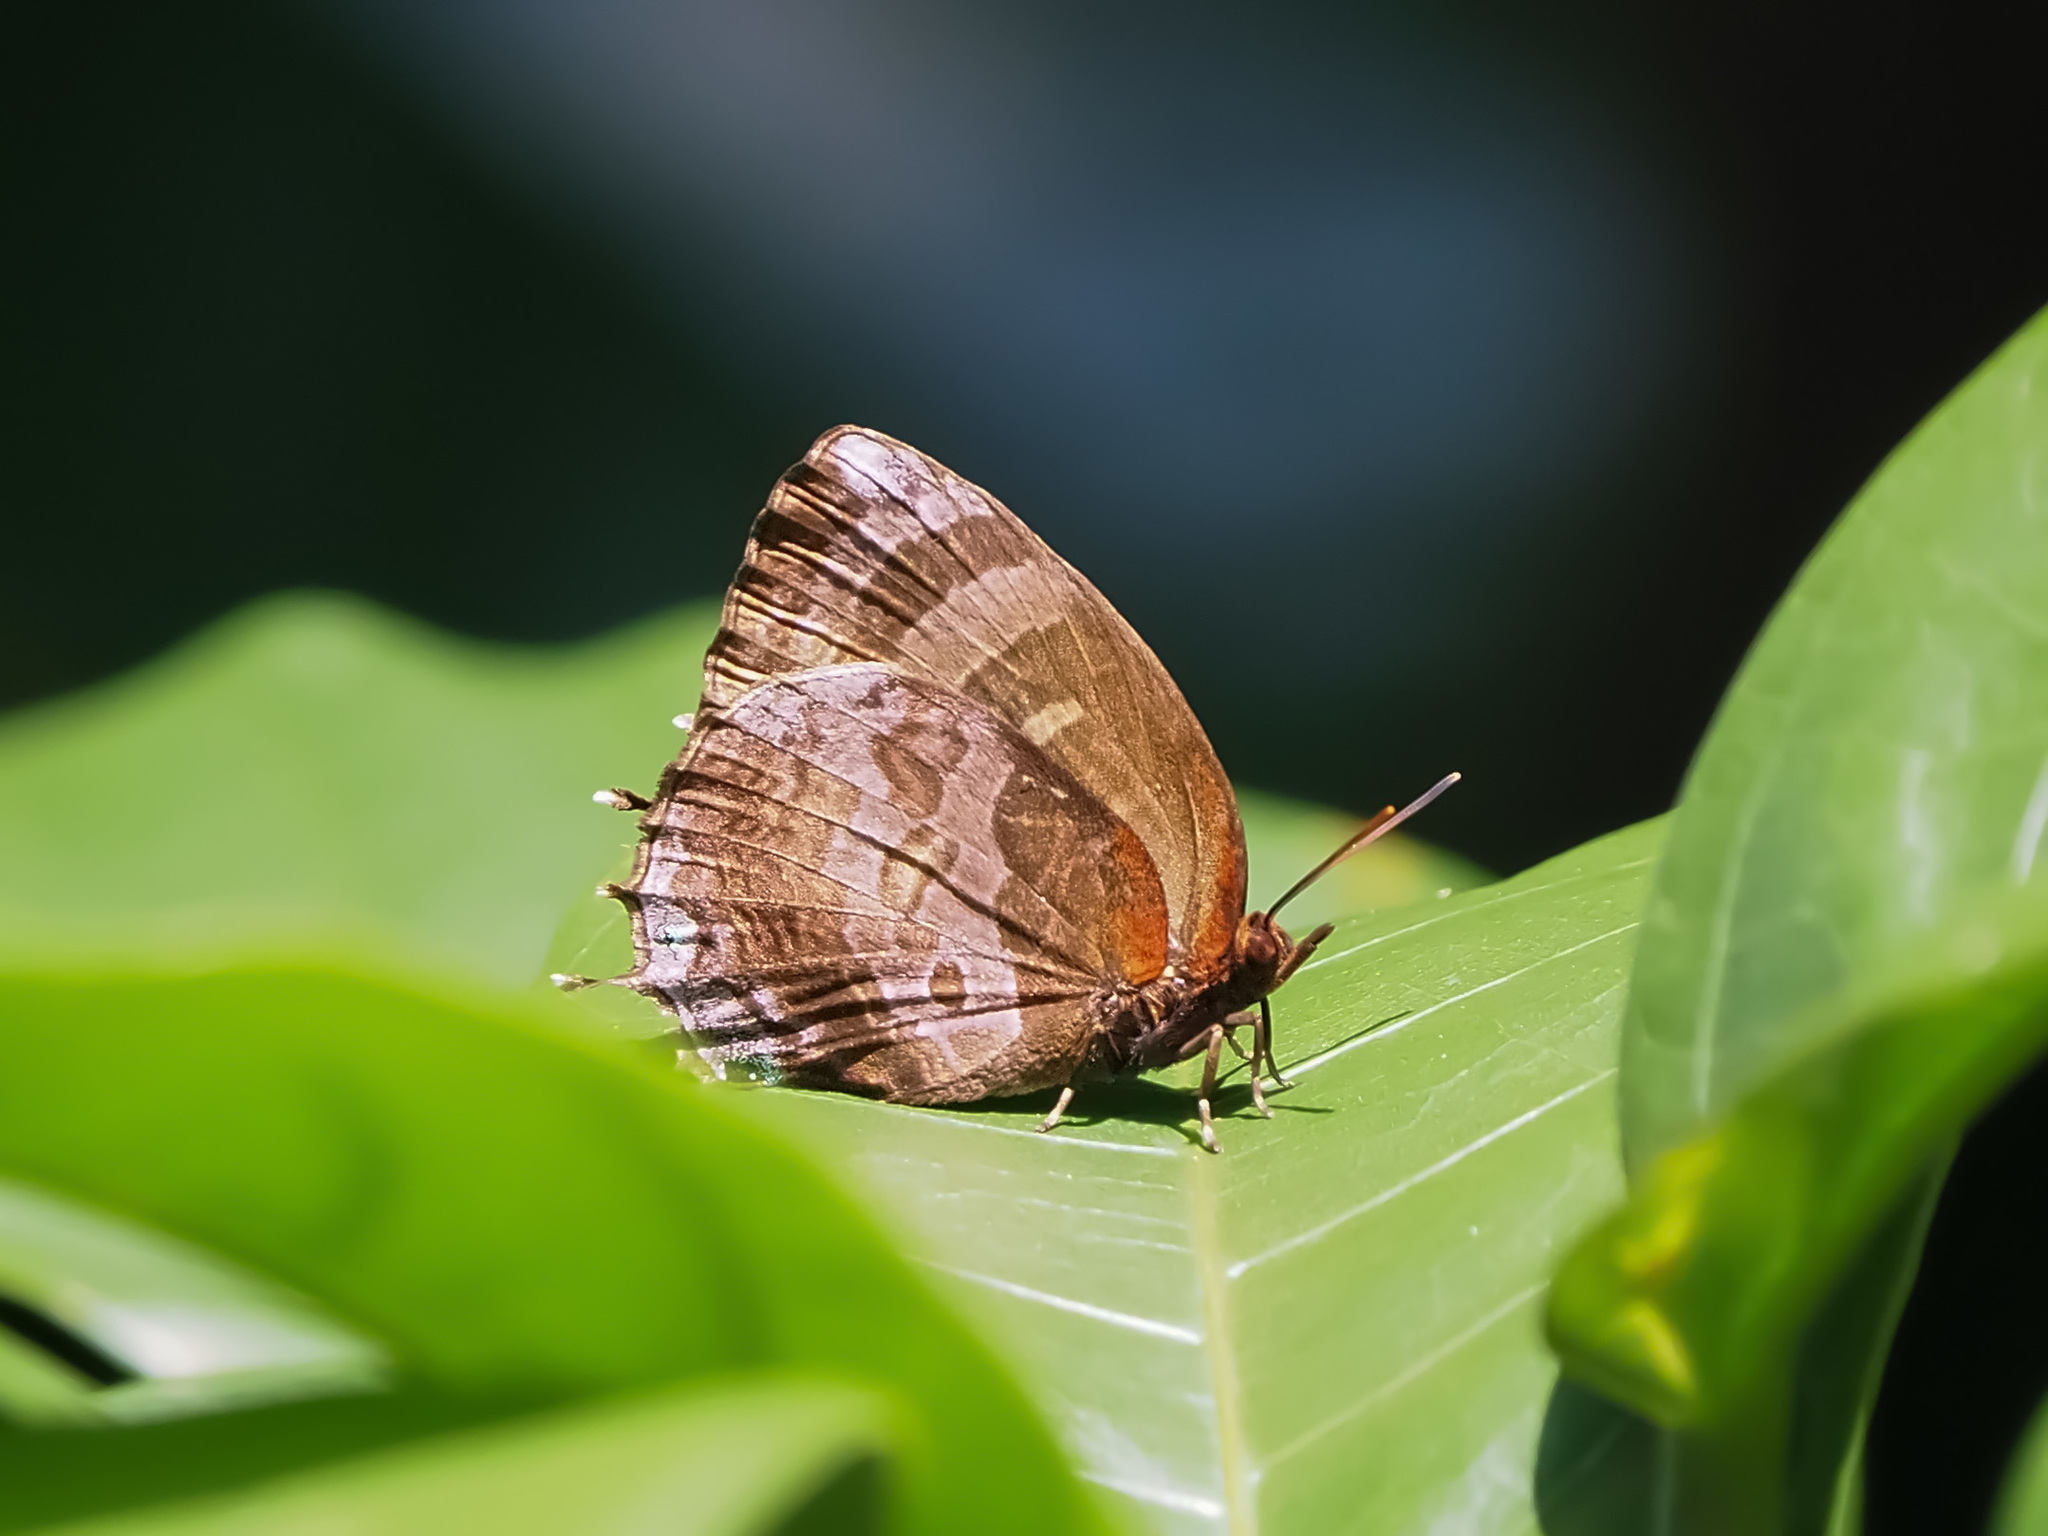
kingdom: Animalia
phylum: Arthropoda
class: Insecta
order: Lepidoptera
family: Lycaenidae
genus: Flos
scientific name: Flos apidanus
